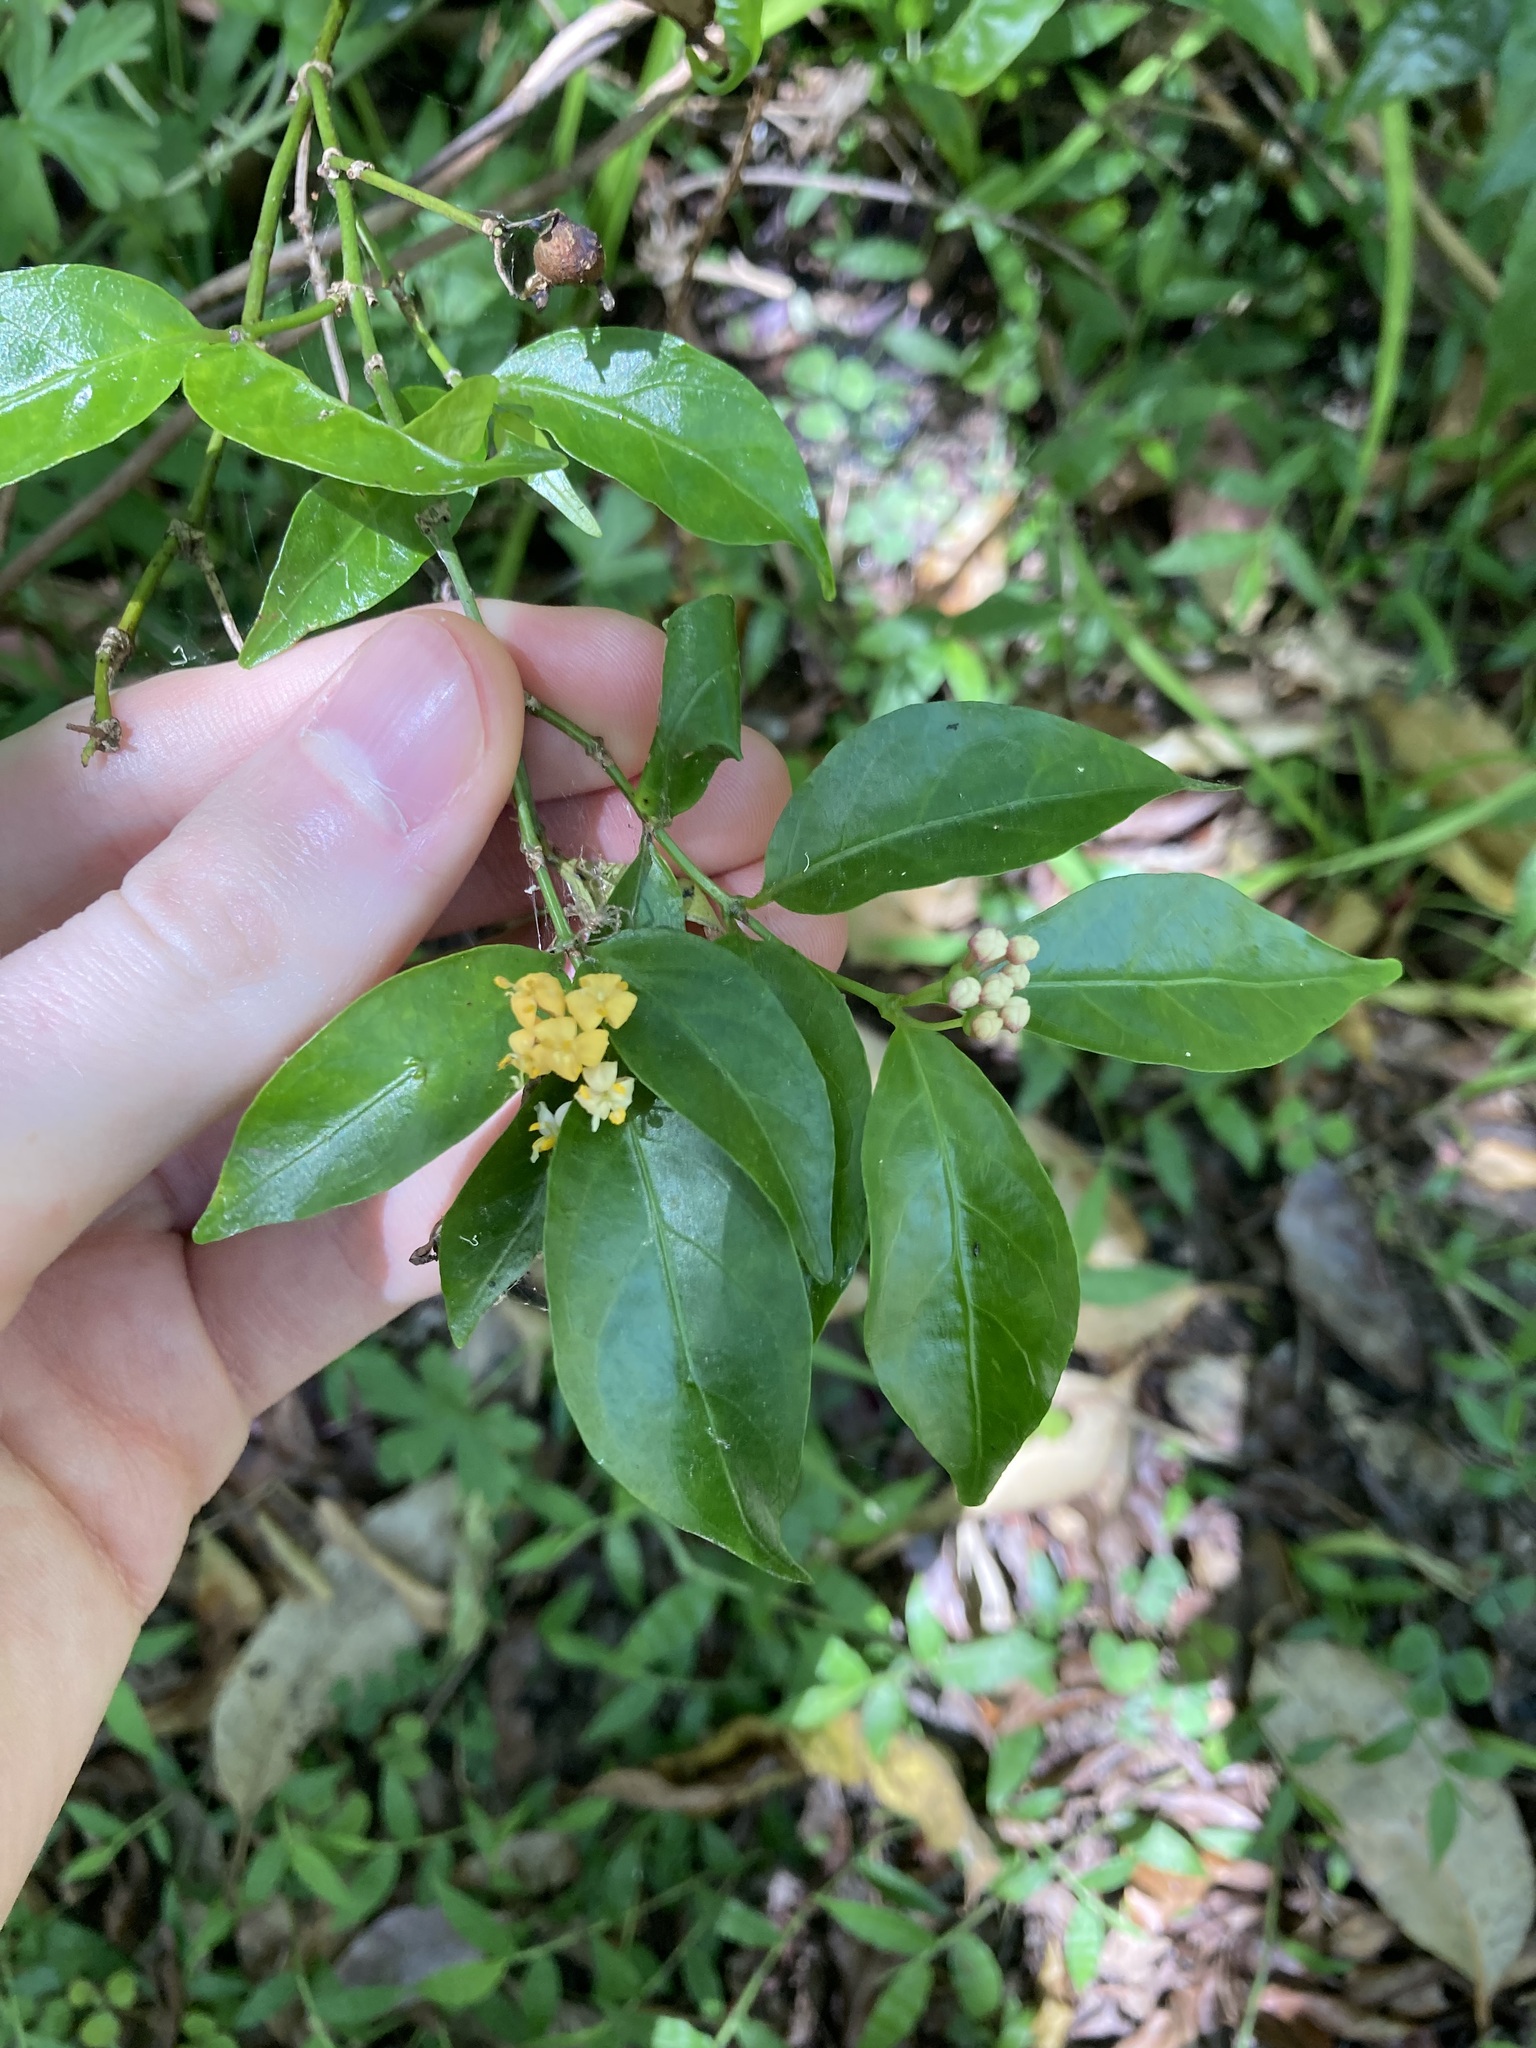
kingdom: Plantae
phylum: Tracheophyta
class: Magnoliopsida
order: Gentianales
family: Rubiaceae
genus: Gynochthodes
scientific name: Gynochthodes jasminoides
